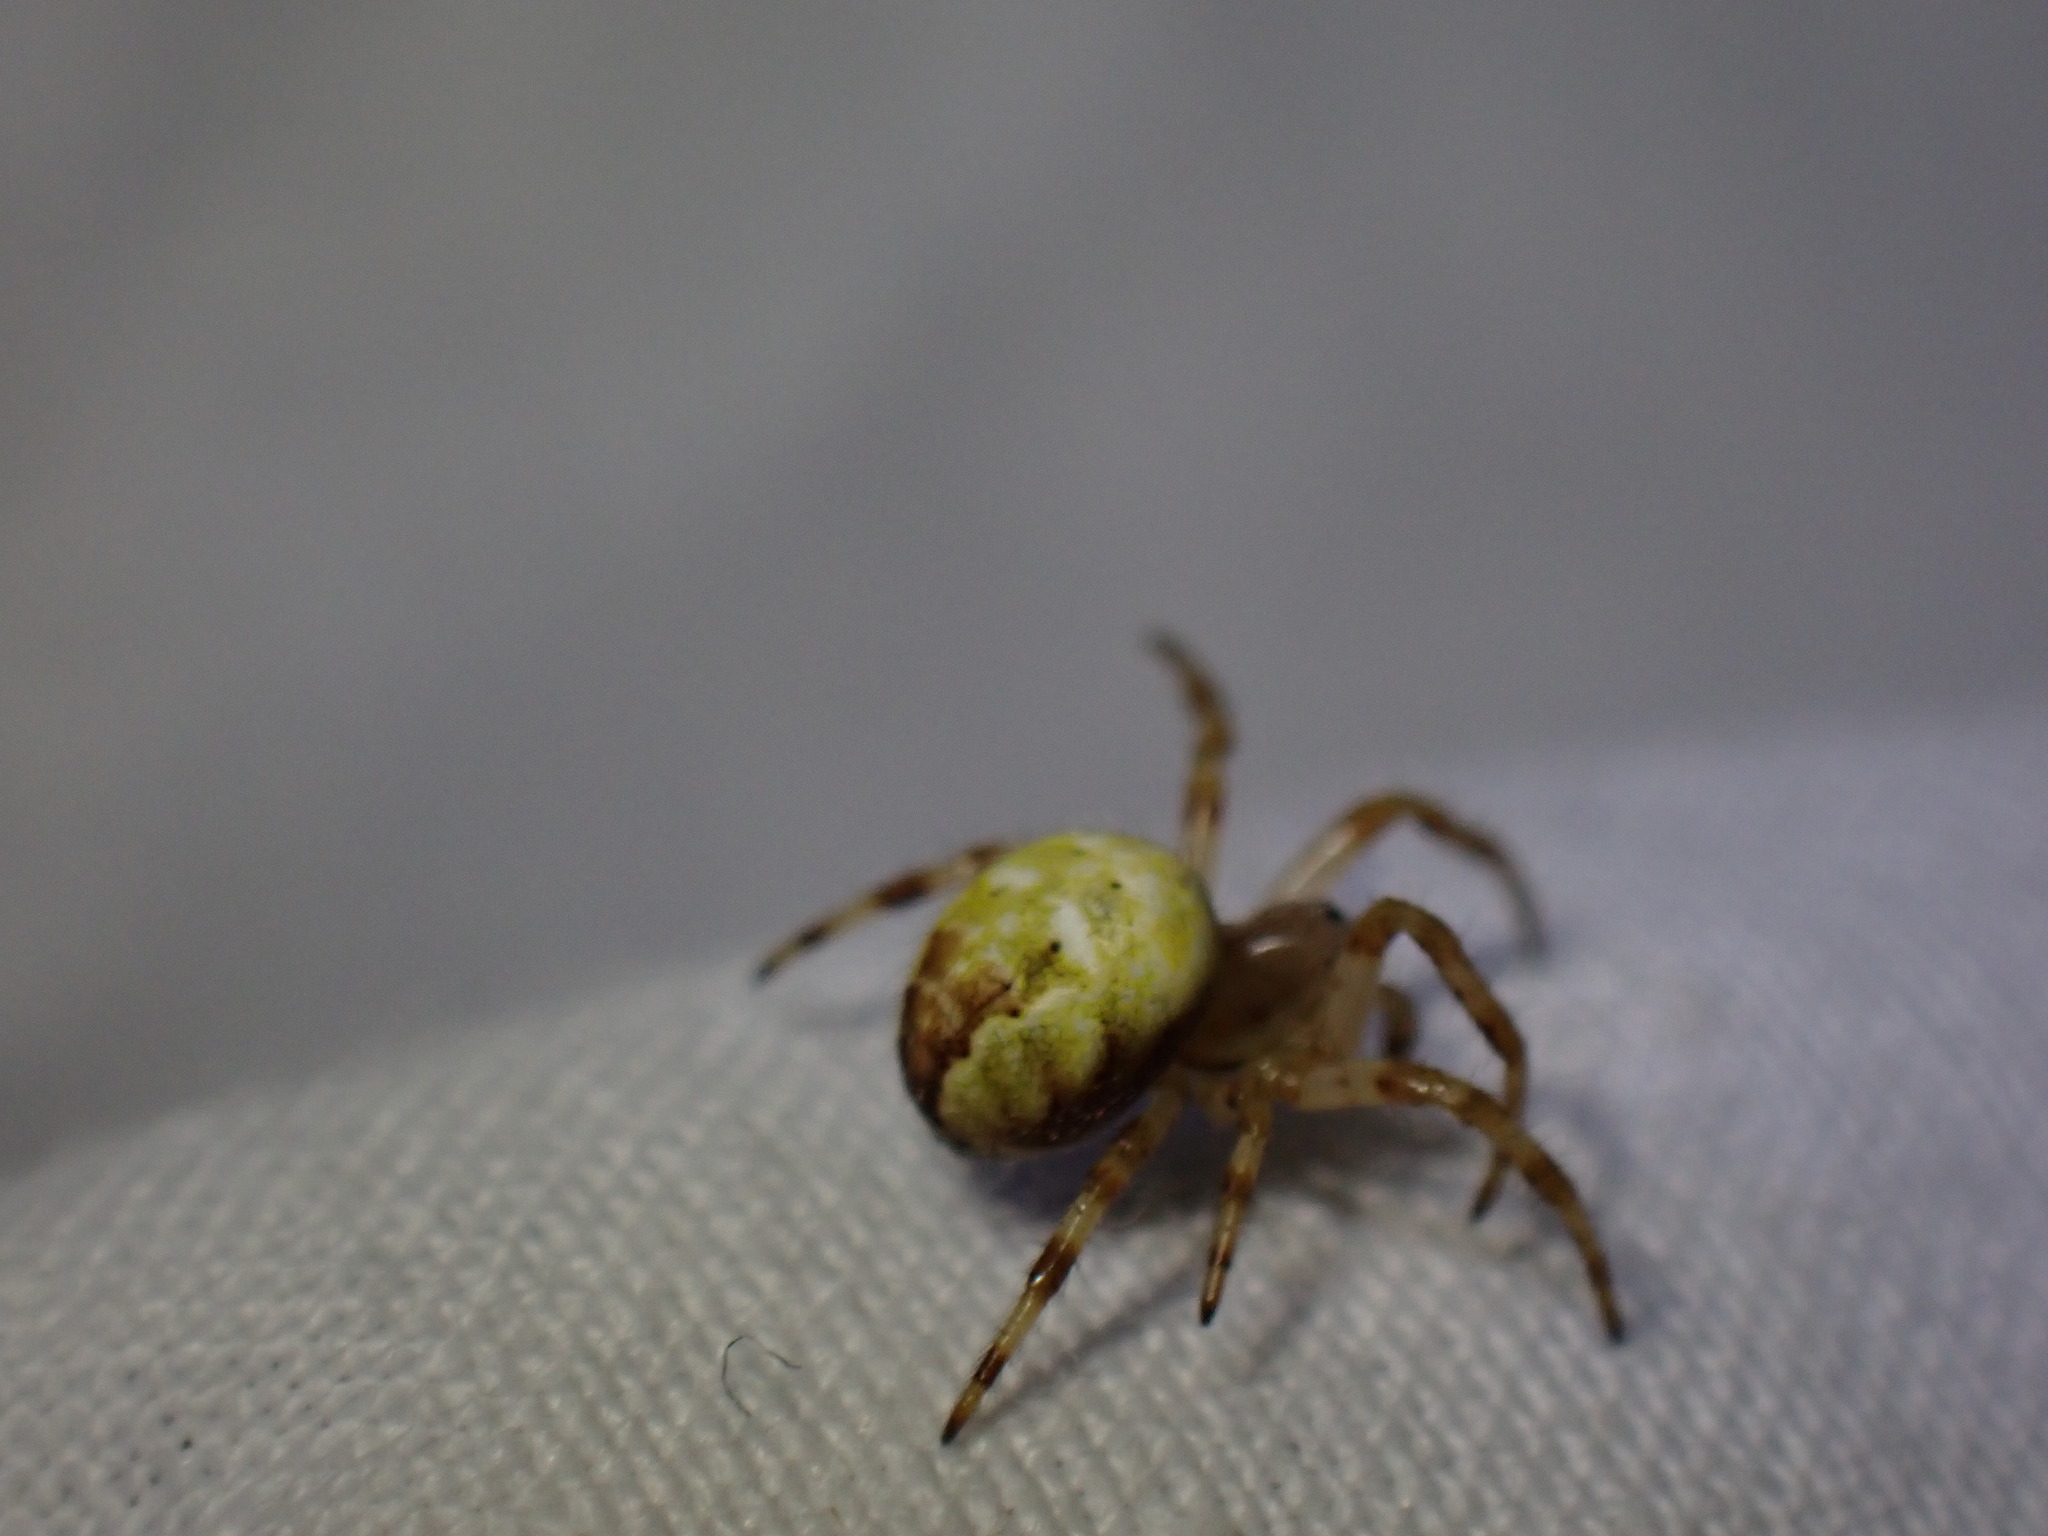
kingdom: Animalia
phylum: Arthropoda
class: Arachnida
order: Araneae
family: Araneidae
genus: Araneus
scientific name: Araneus quadratus
